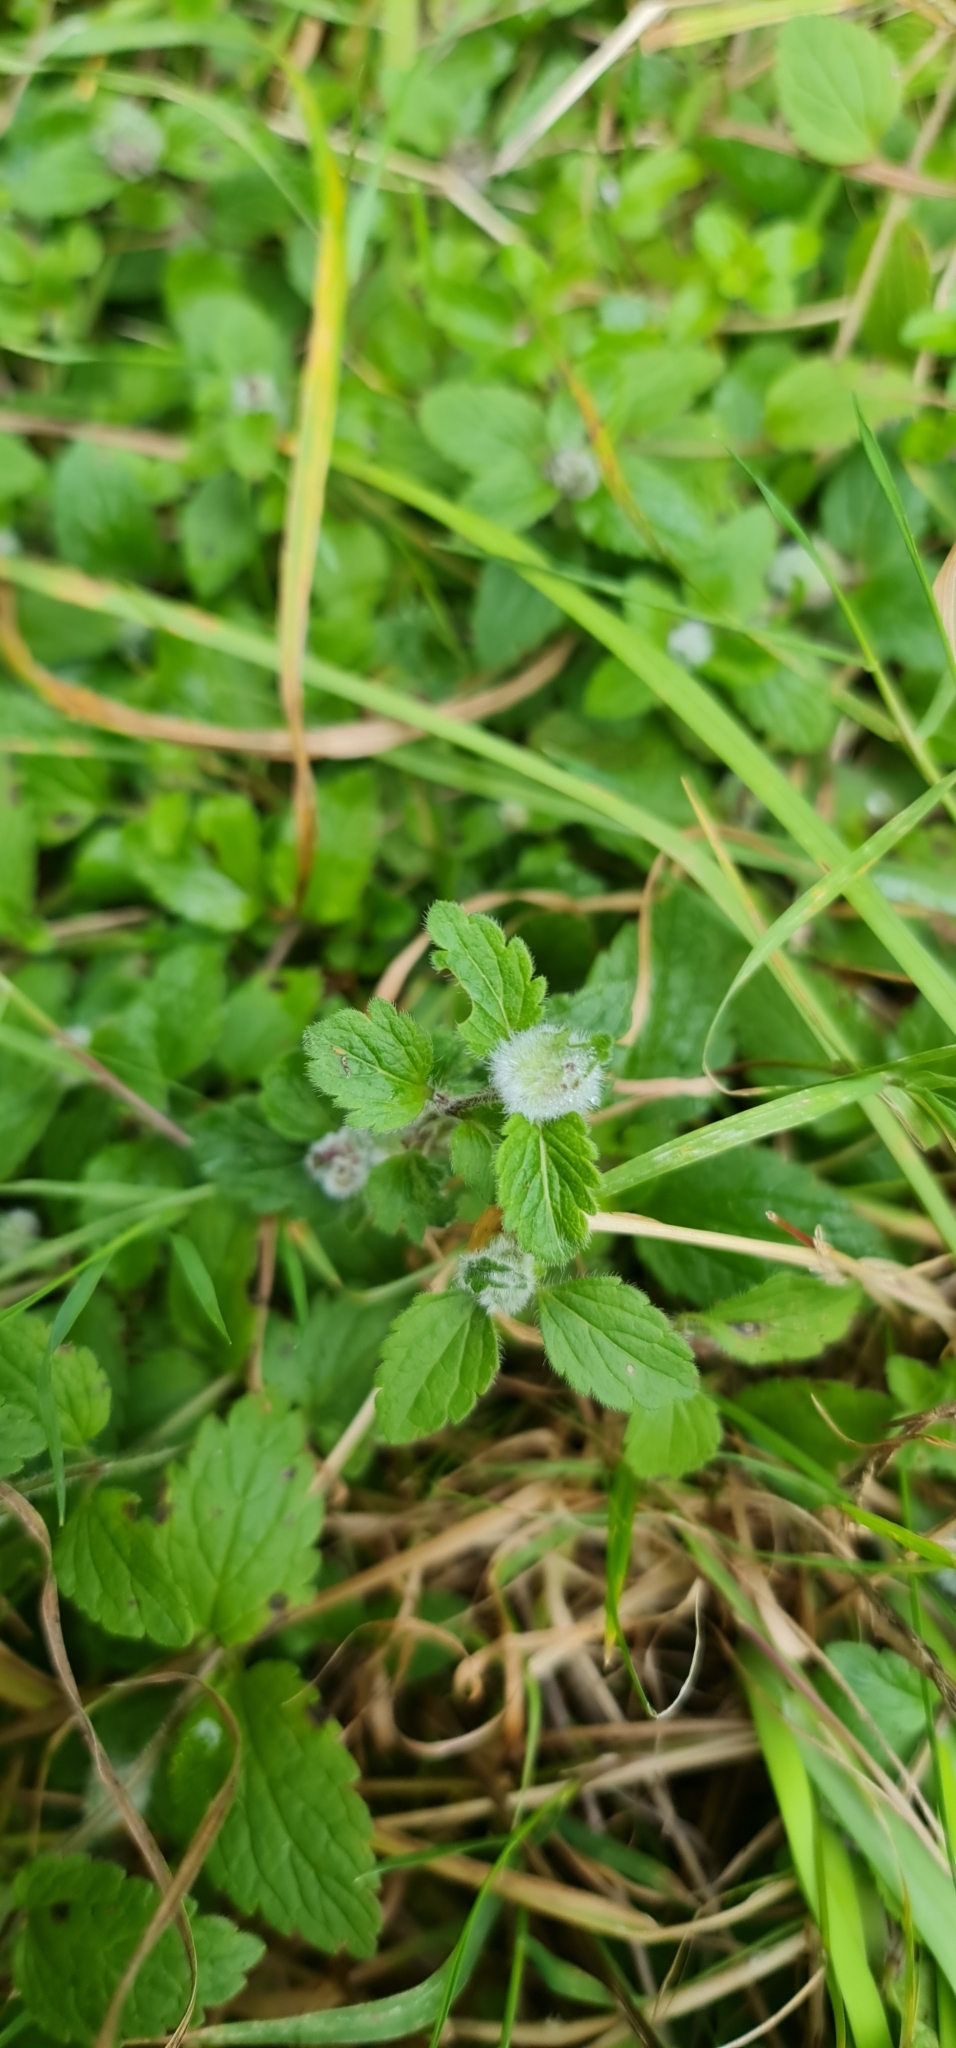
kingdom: Plantae
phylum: Tracheophyta
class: Magnoliopsida
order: Lamiales
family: Plantaginaceae
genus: Veronica
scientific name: Veronica chamaedrys
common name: Germander speedwell
